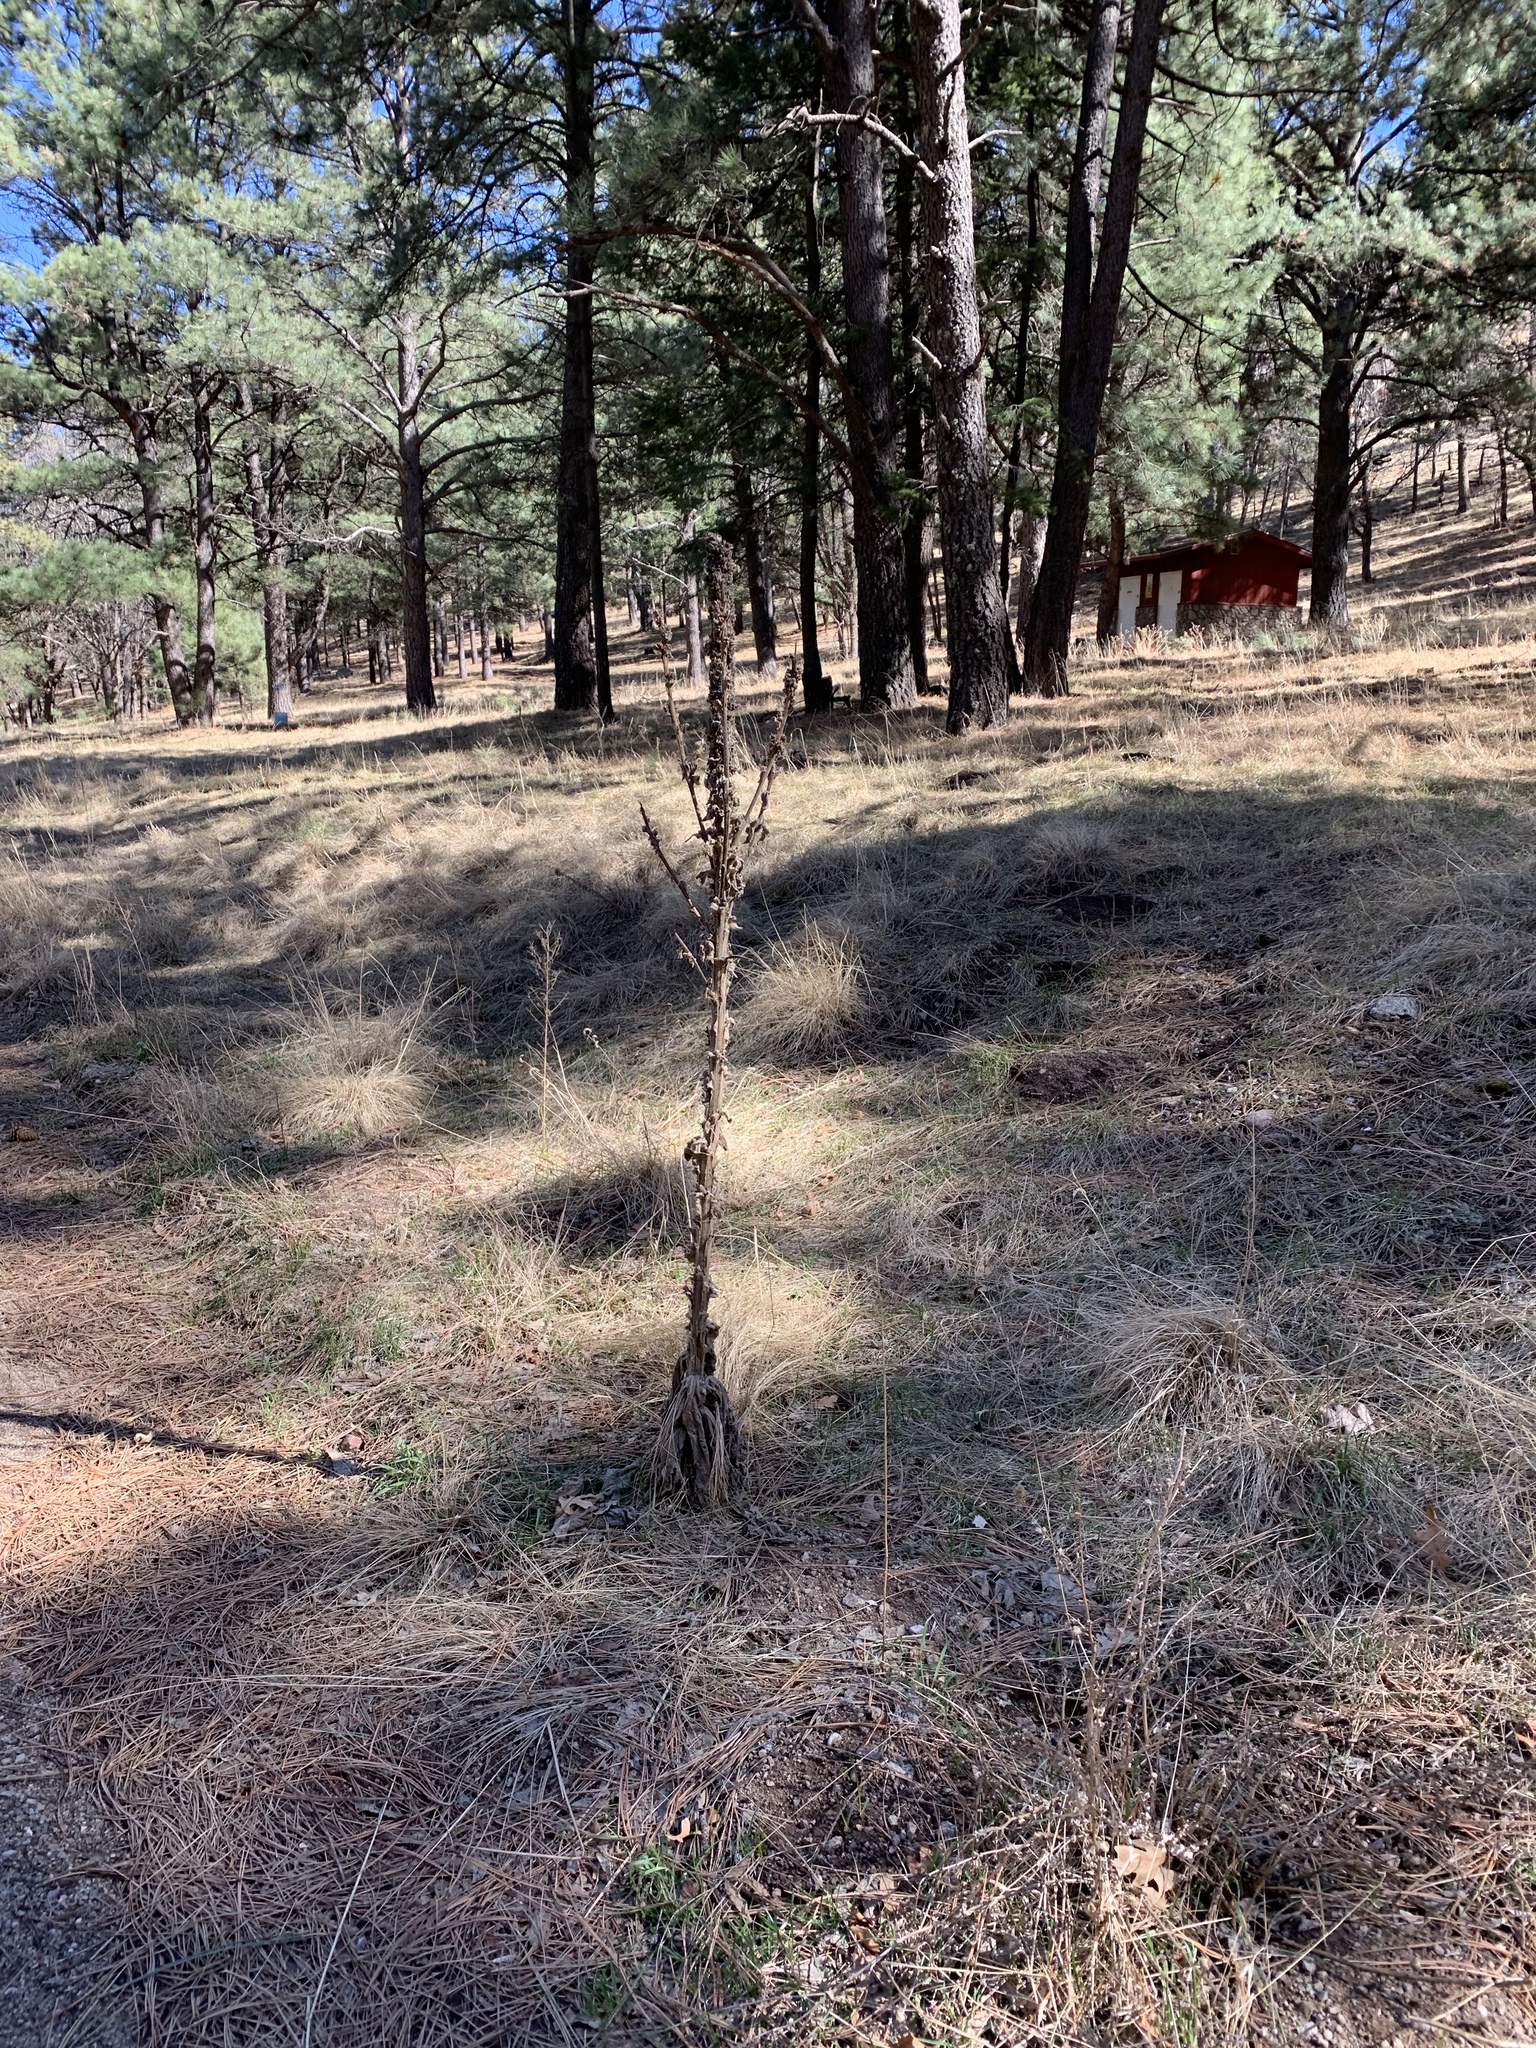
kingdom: Plantae
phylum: Tracheophyta
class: Magnoliopsida
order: Lamiales
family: Scrophulariaceae
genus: Verbascum
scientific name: Verbascum thapsus
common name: Common mullein
